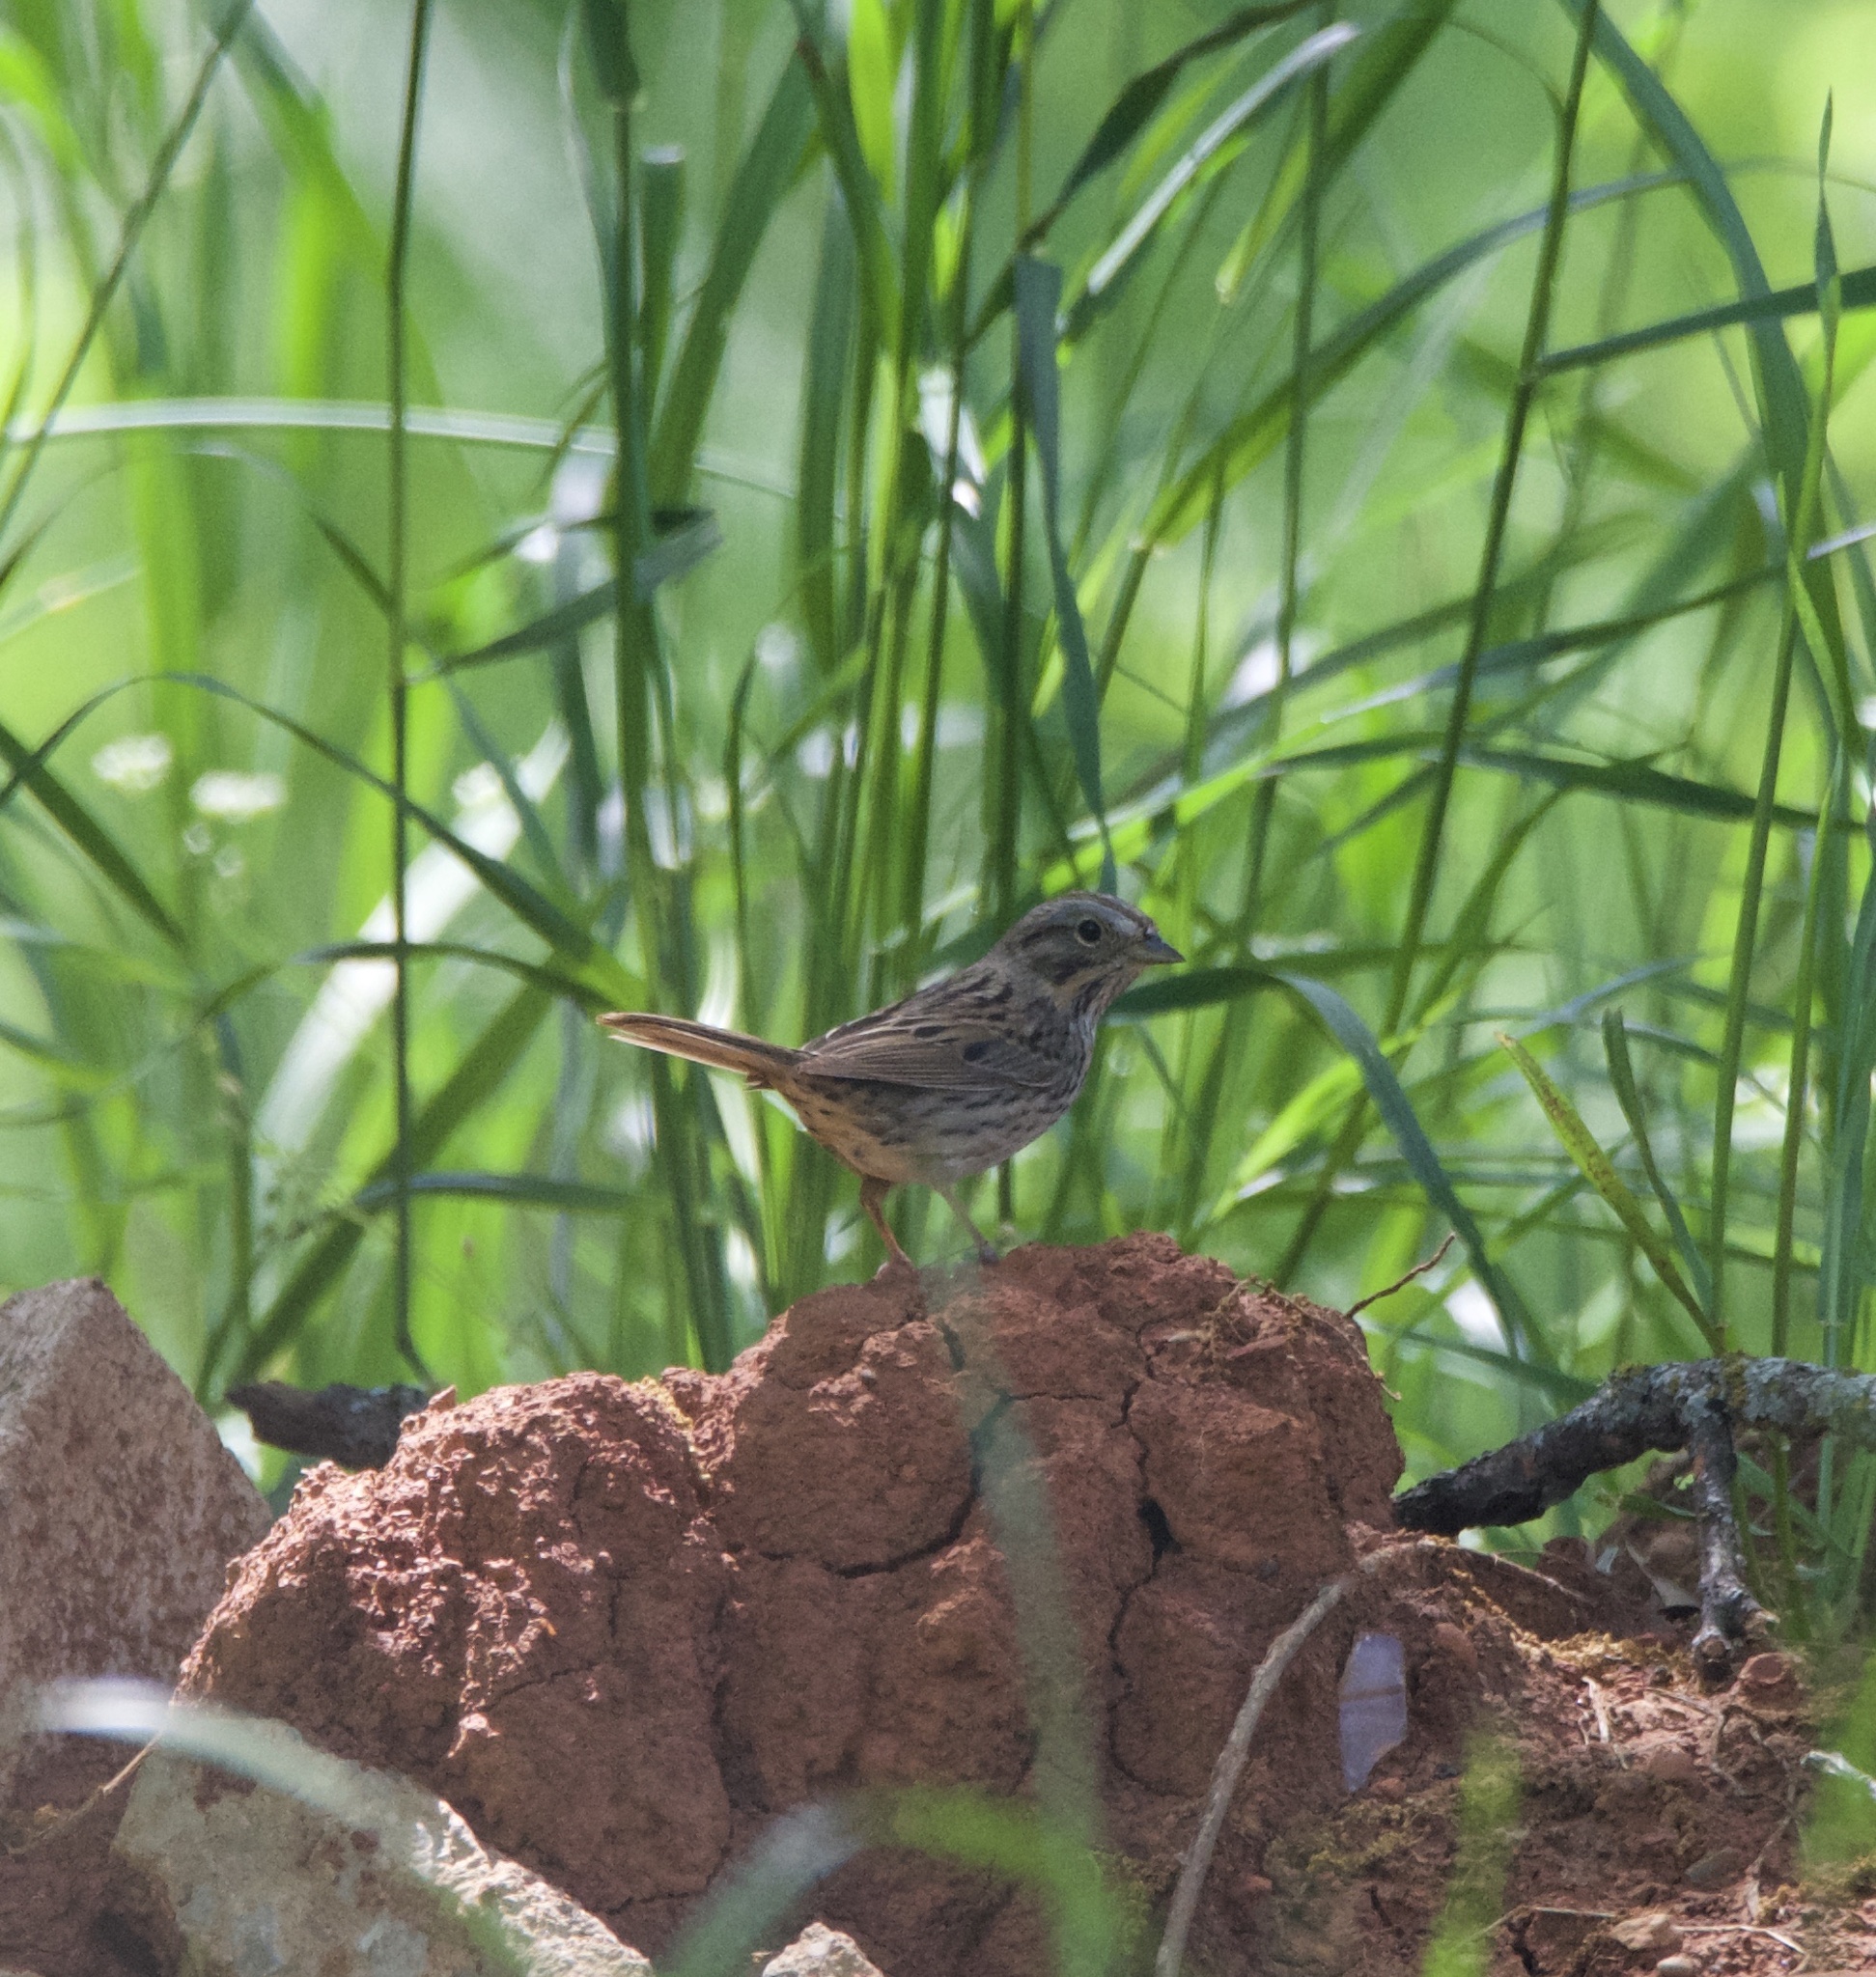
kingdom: Animalia
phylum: Chordata
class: Aves
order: Passeriformes
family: Passerellidae
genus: Melospiza
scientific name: Melospiza lincolnii
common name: Lincoln's sparrow
